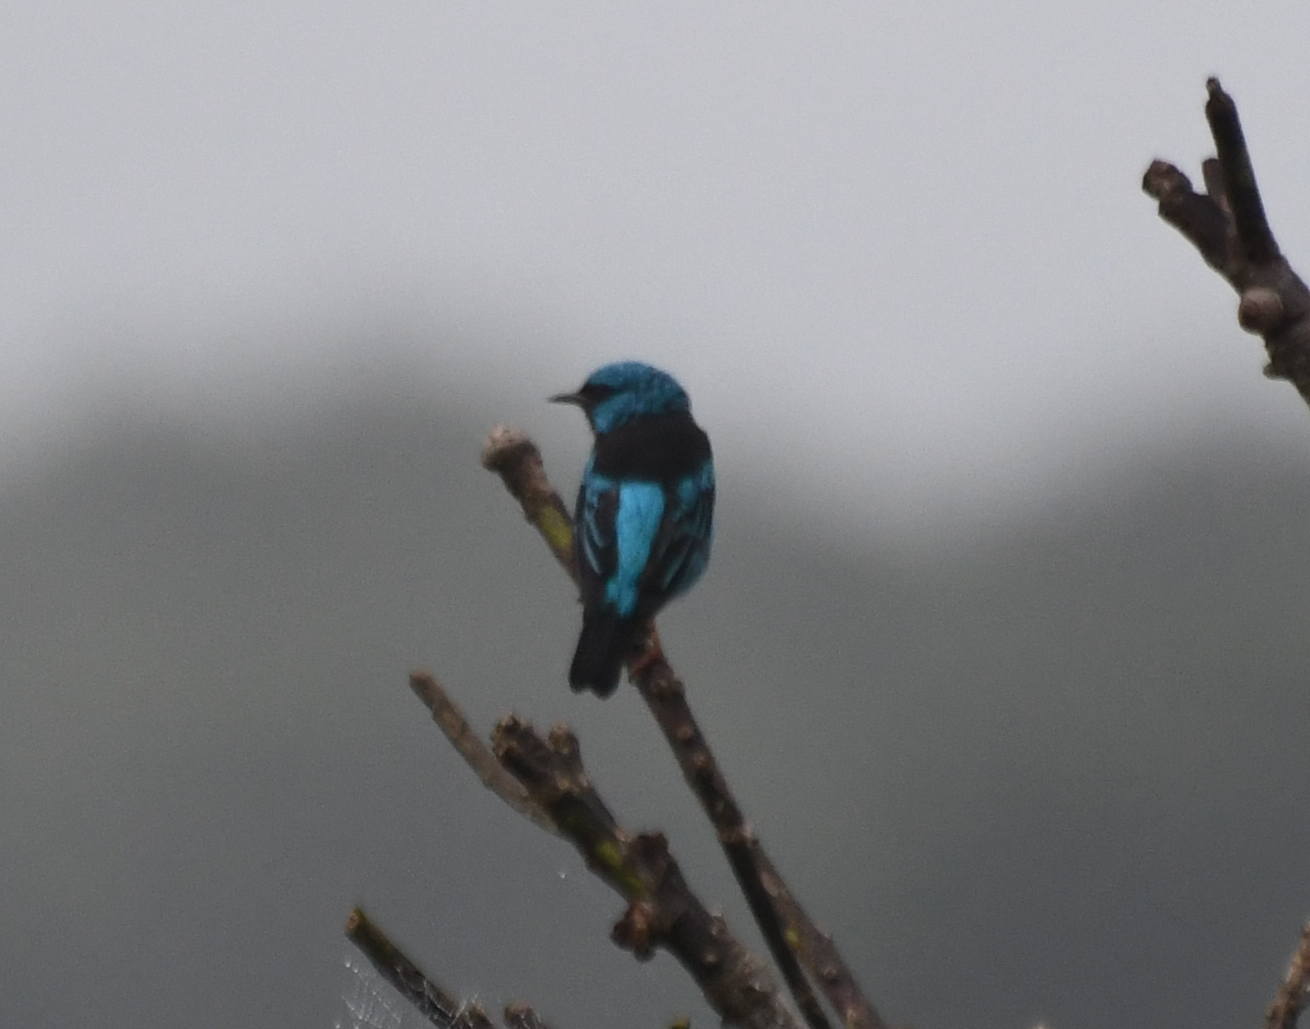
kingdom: Animalia
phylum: Chordata
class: Aves
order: Passeriformes
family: Thraupidae
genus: Dacnis
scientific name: Dacnis cayana
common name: Blue dacnis
